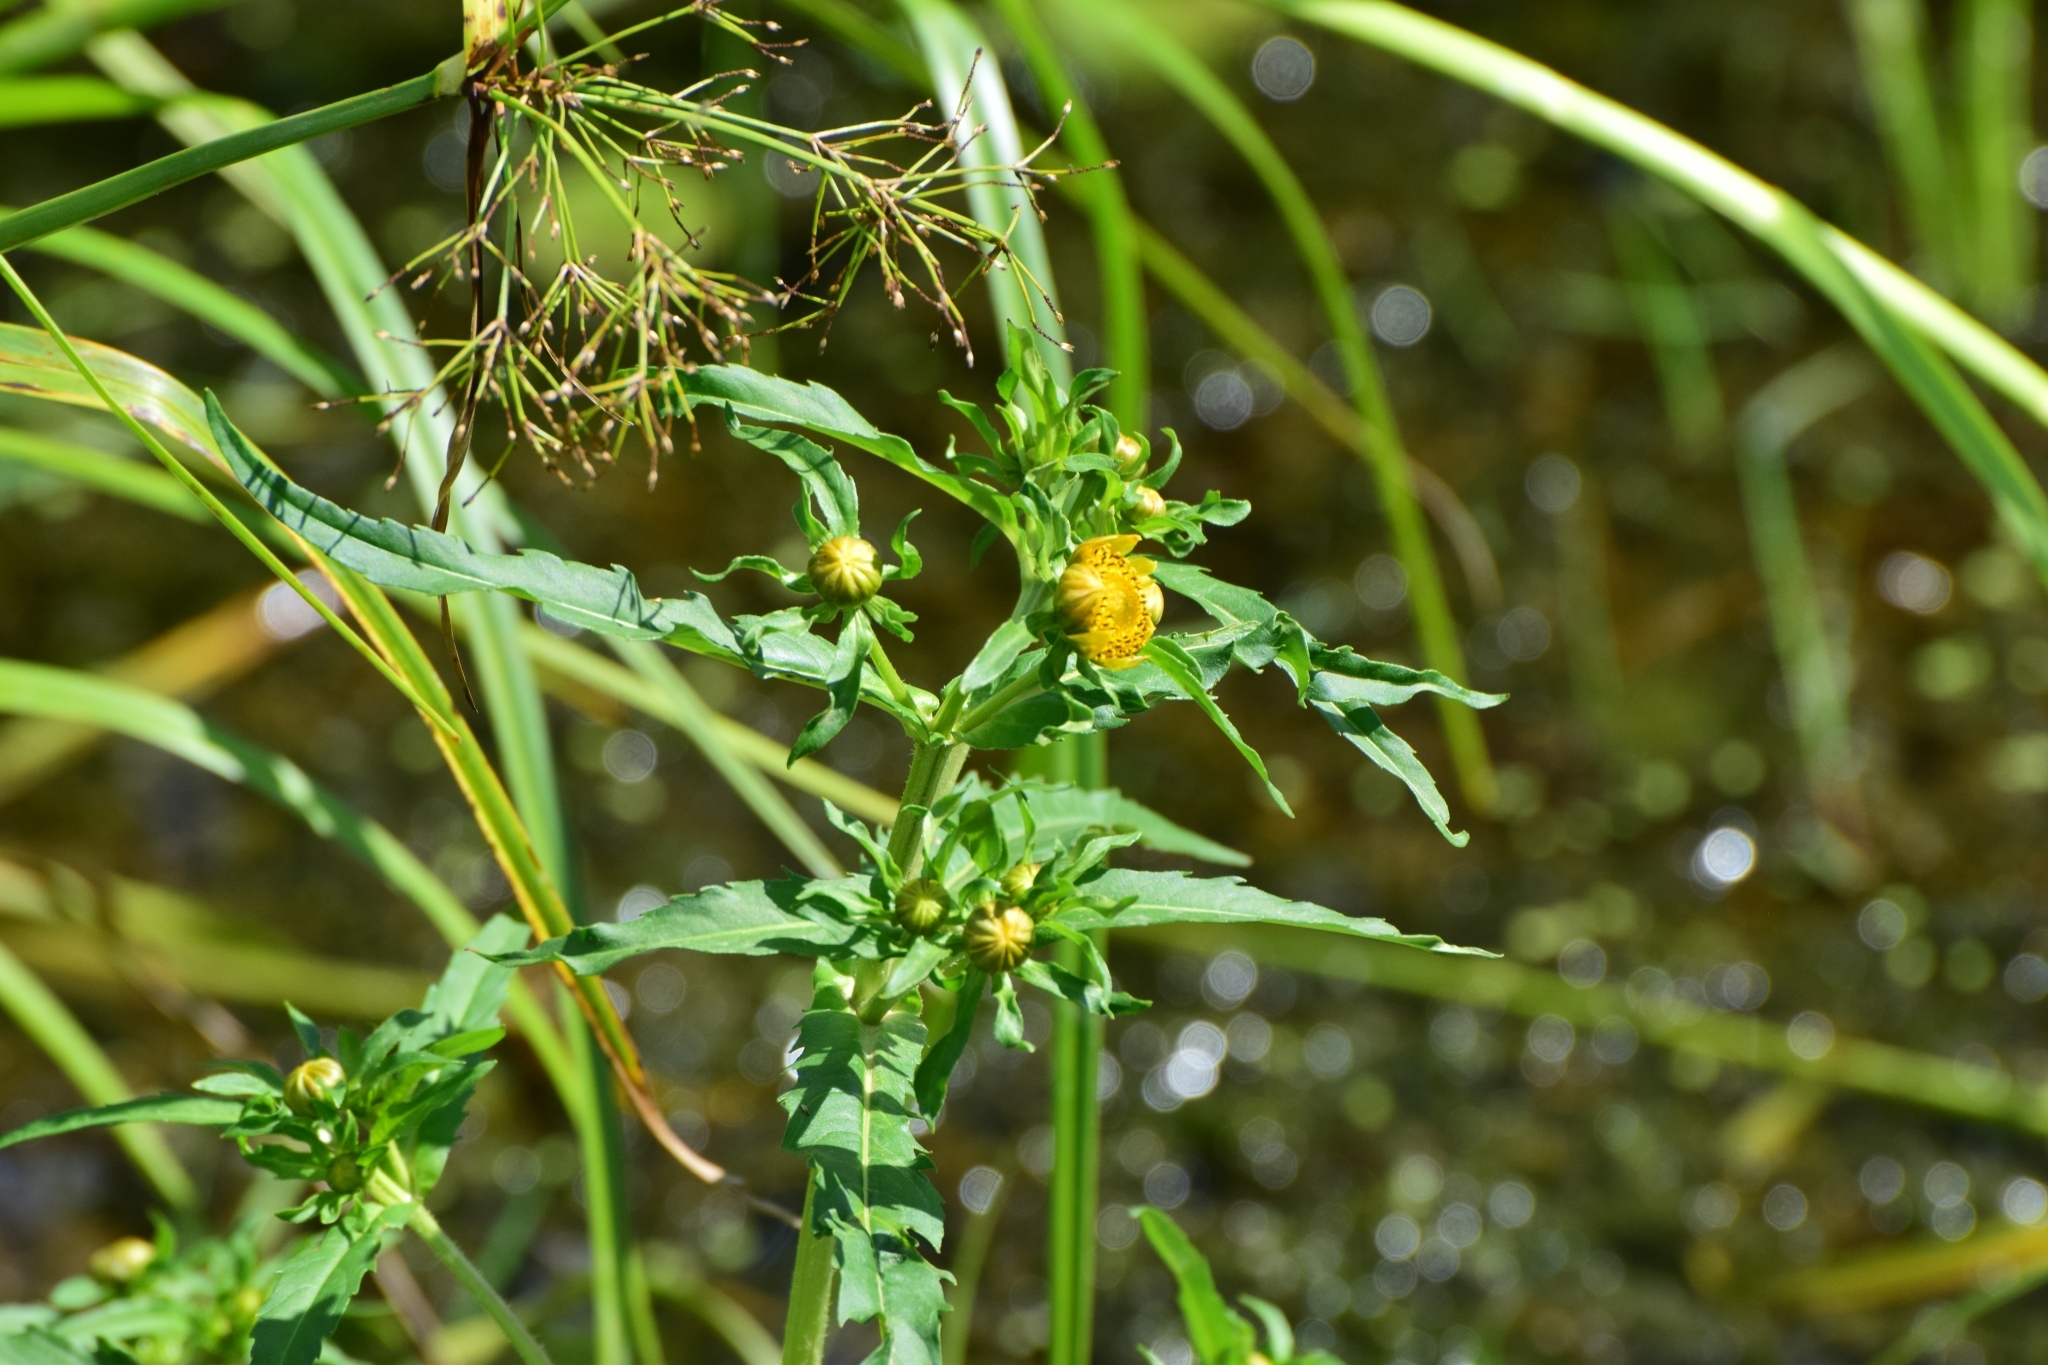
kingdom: Plantae
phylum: Tracheophyta
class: Magnoliopsida
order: Asterales
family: Asteraceae
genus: Bidens
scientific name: Bidens tripartita
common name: Trifid bur-marigold
